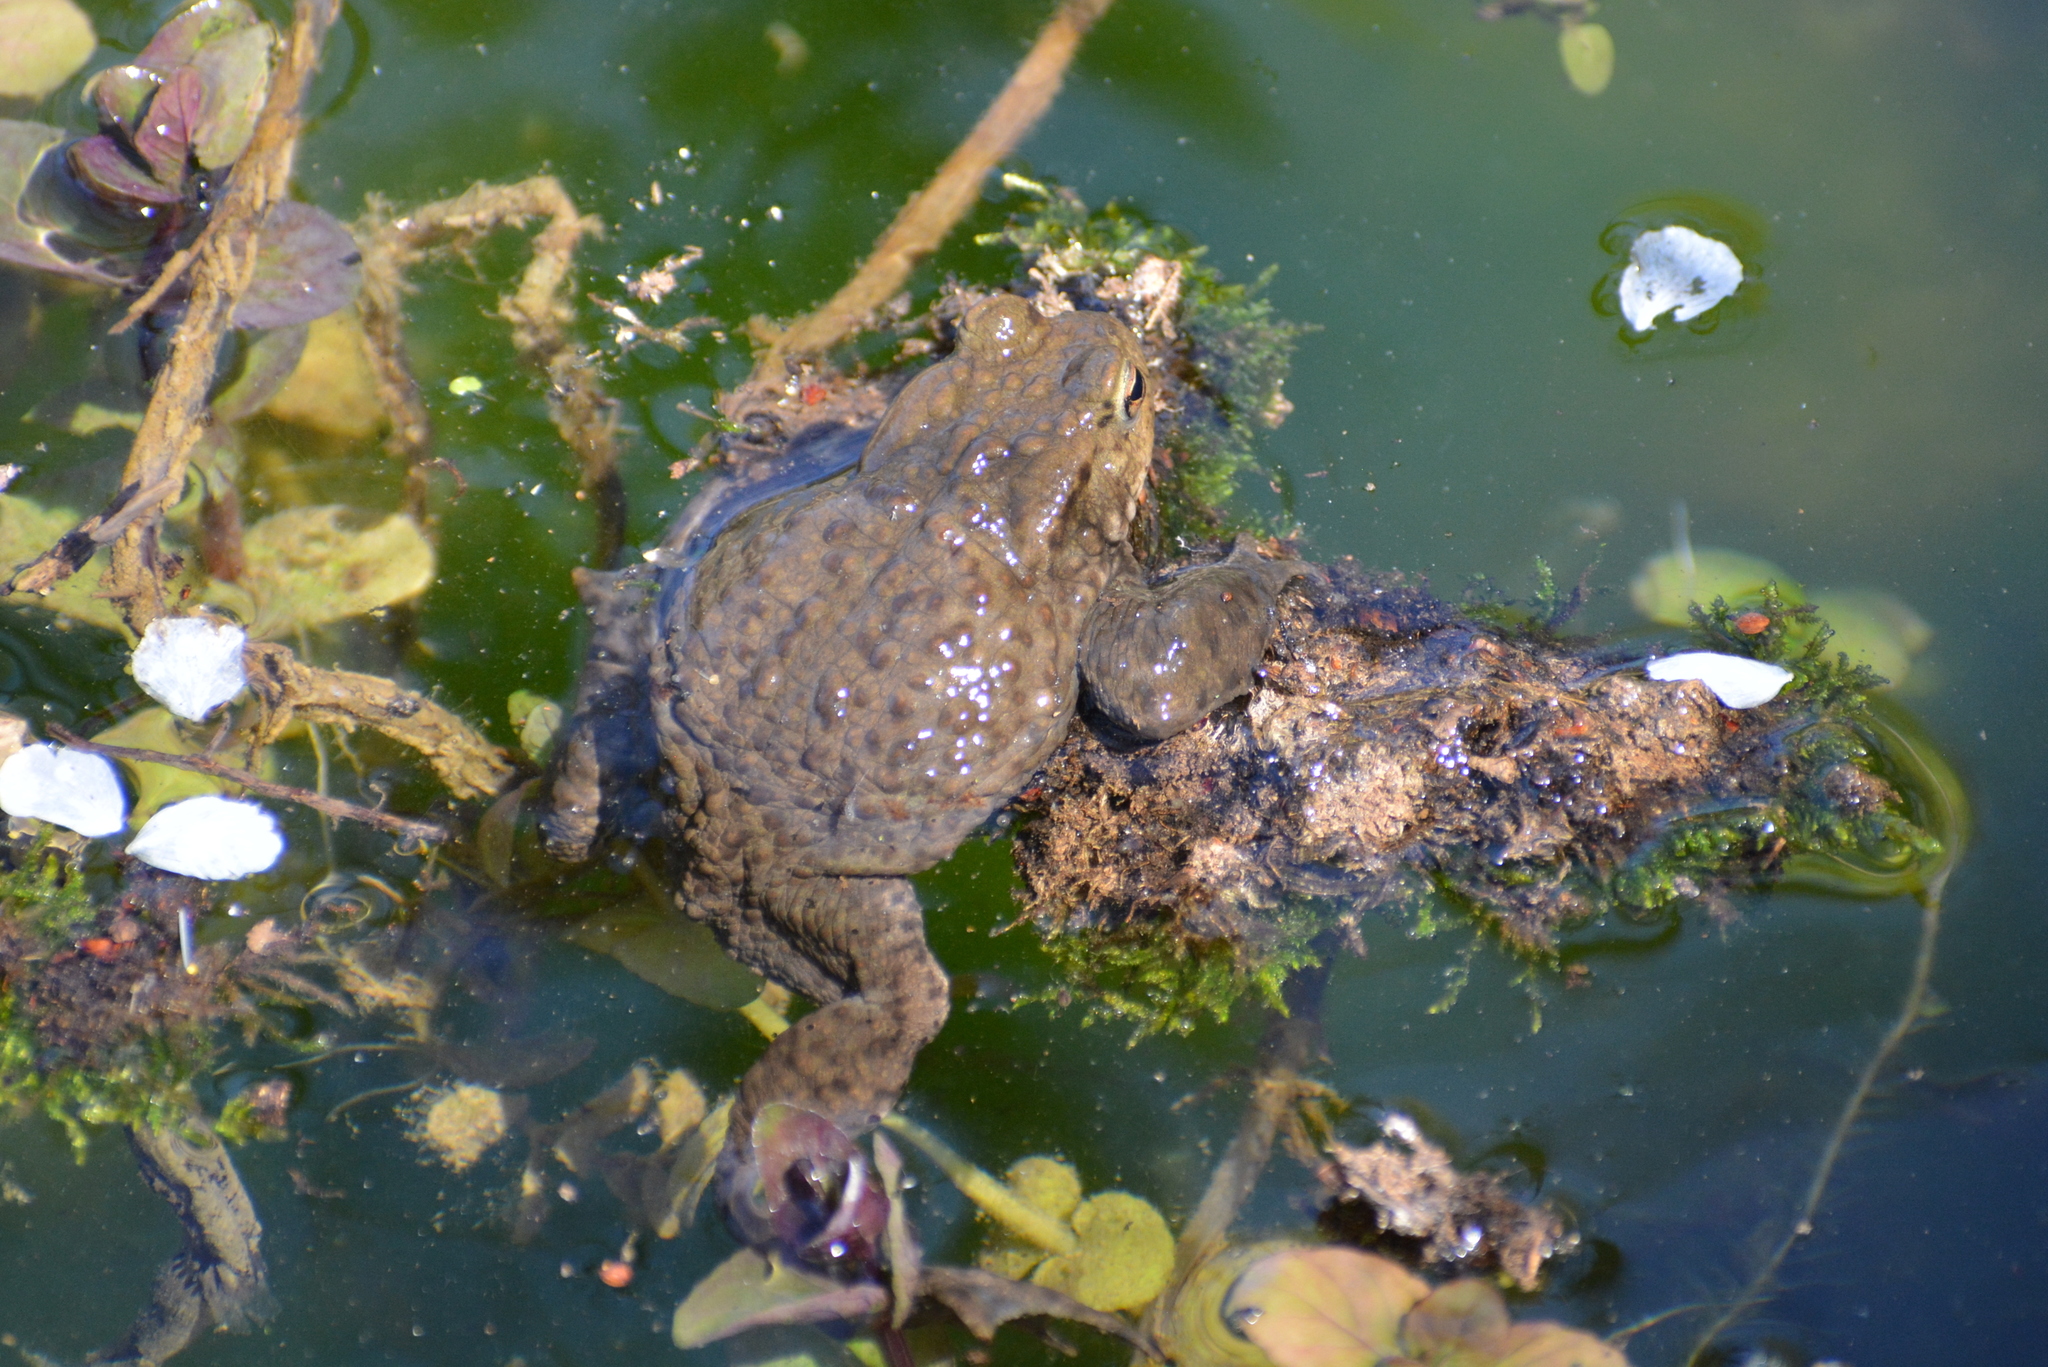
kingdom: Animalia
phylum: Chordata
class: Amphibia
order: Anura
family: Bufonidae
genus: Bufo
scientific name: Bufo bufo
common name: Common toad
